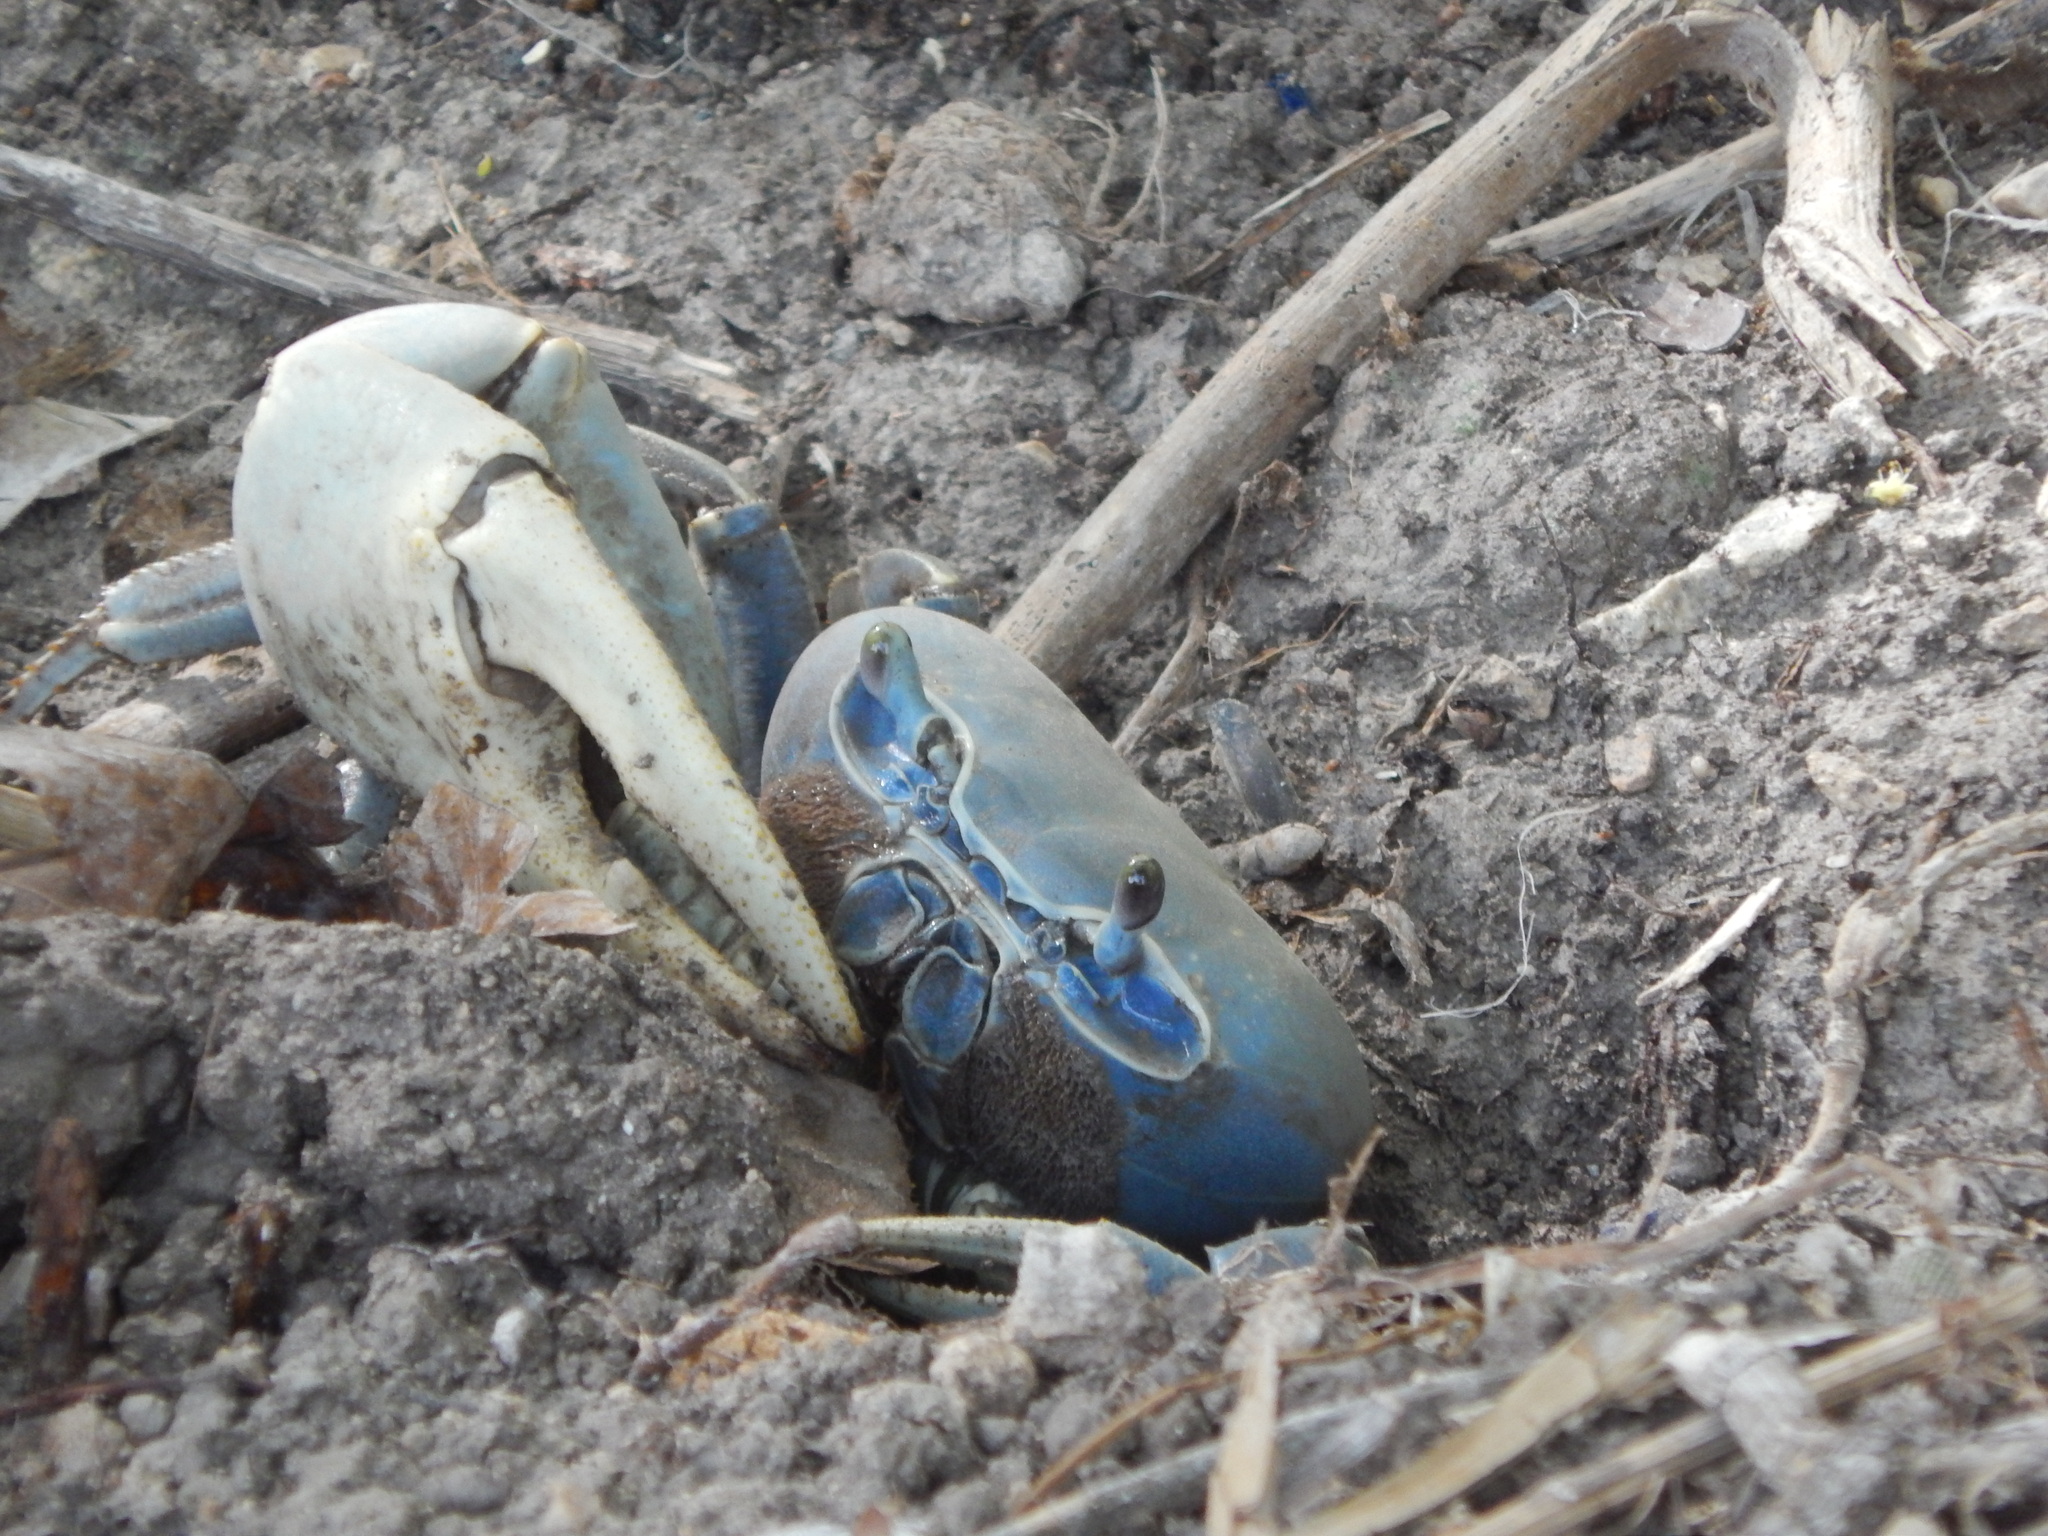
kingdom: Animalia
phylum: Arthropoda
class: Malacostraca
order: Decapoda
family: Gecarcinidae
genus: Cardisoma
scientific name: Cardisoma guanhumi
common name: Great land crab
